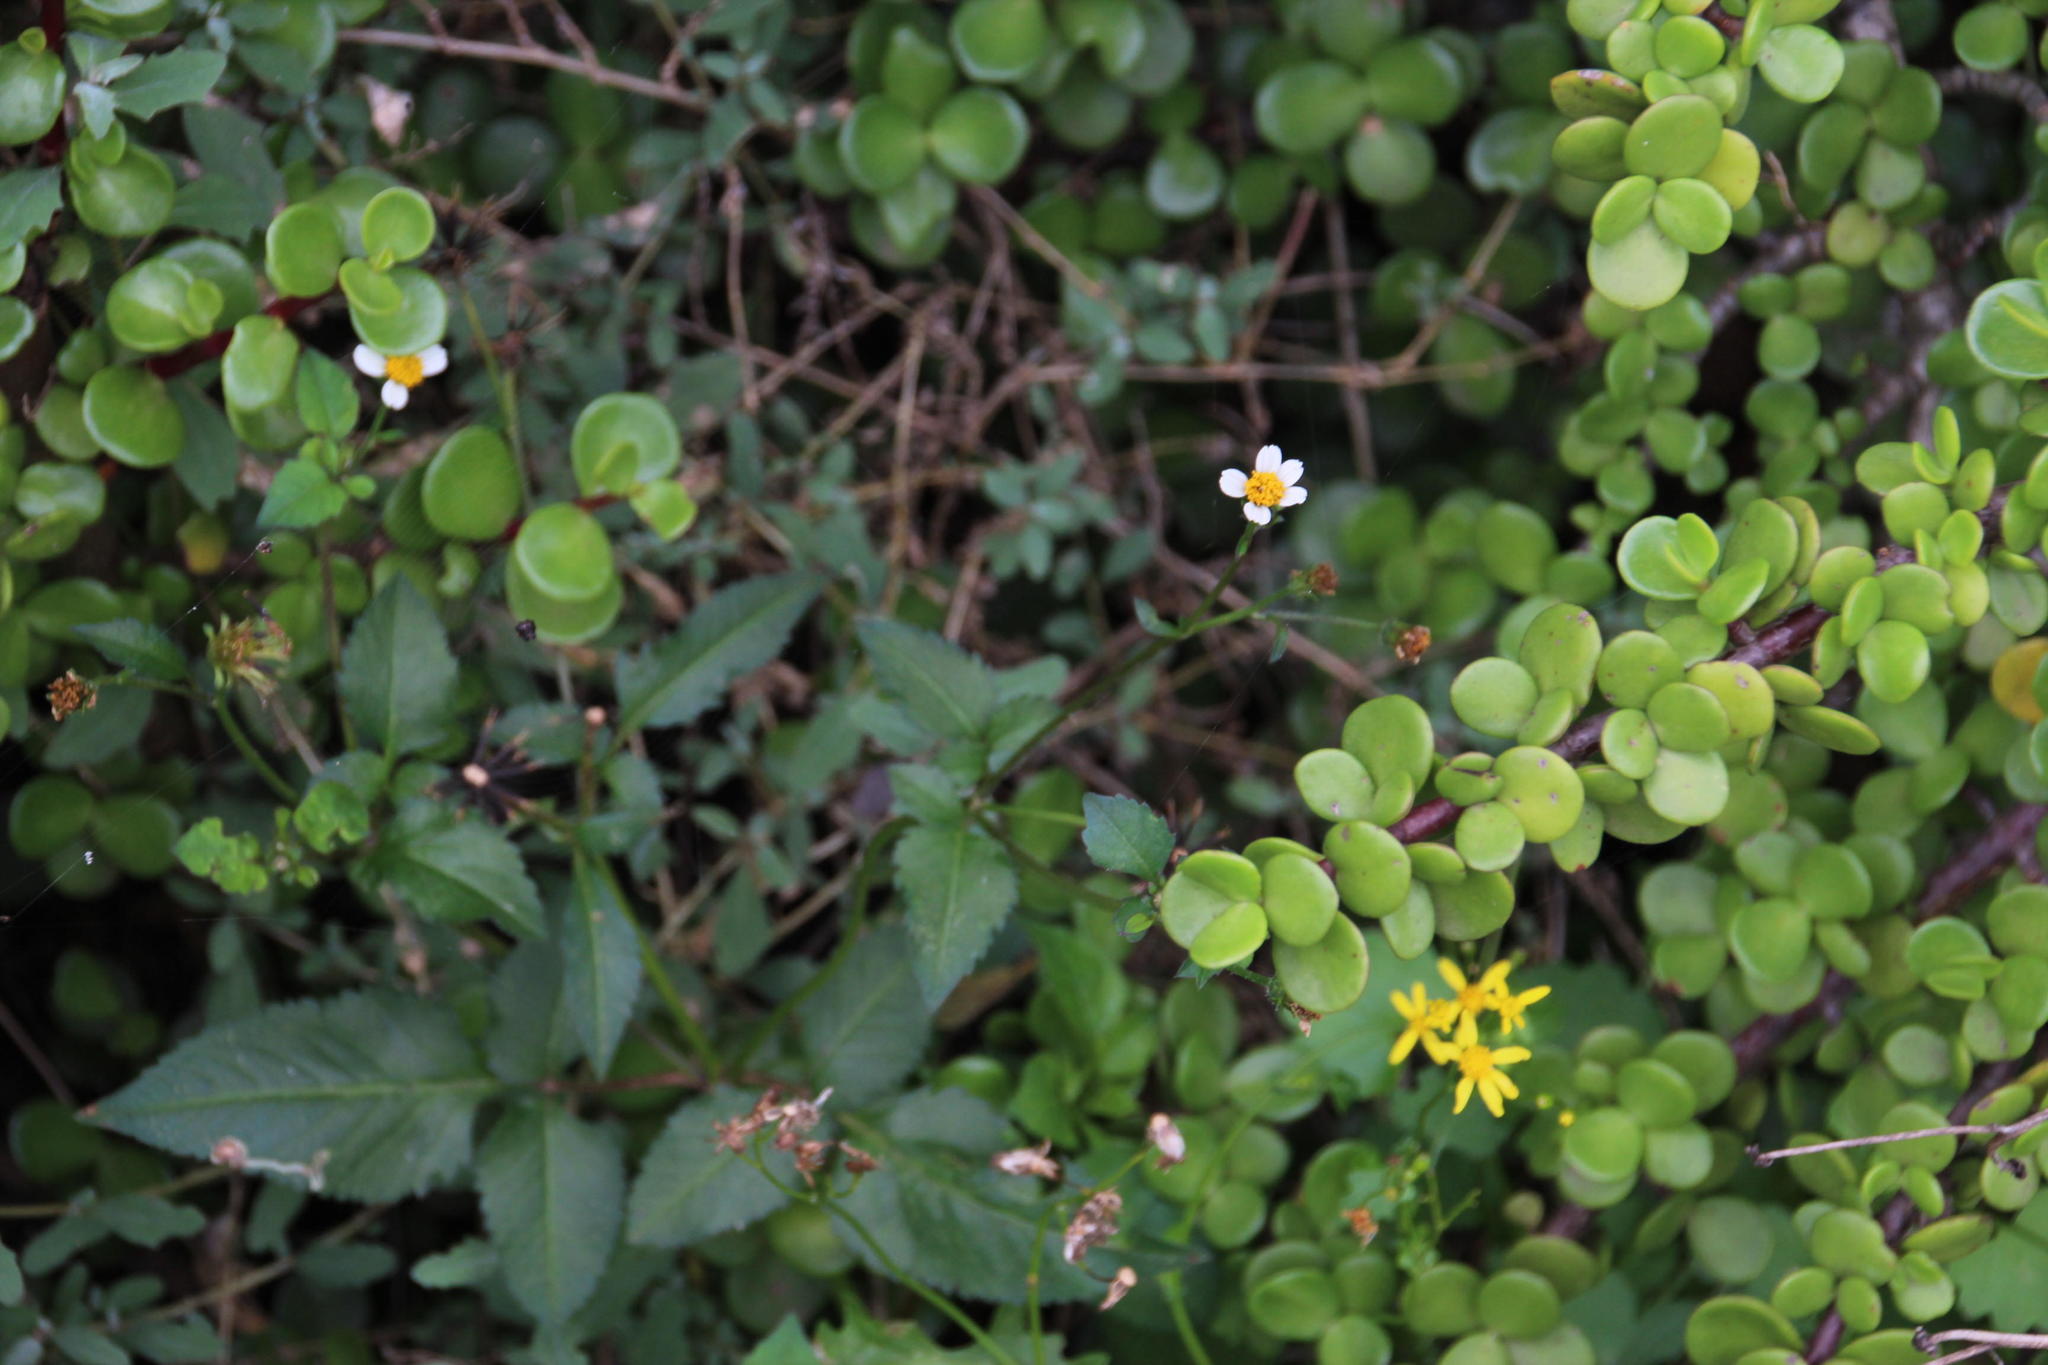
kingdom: Plantae
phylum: Tracheophyta
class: Magnoliopsida
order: Asterales
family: Asteraceae
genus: Bidens
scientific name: Bidens pilosa
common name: Black-jack
